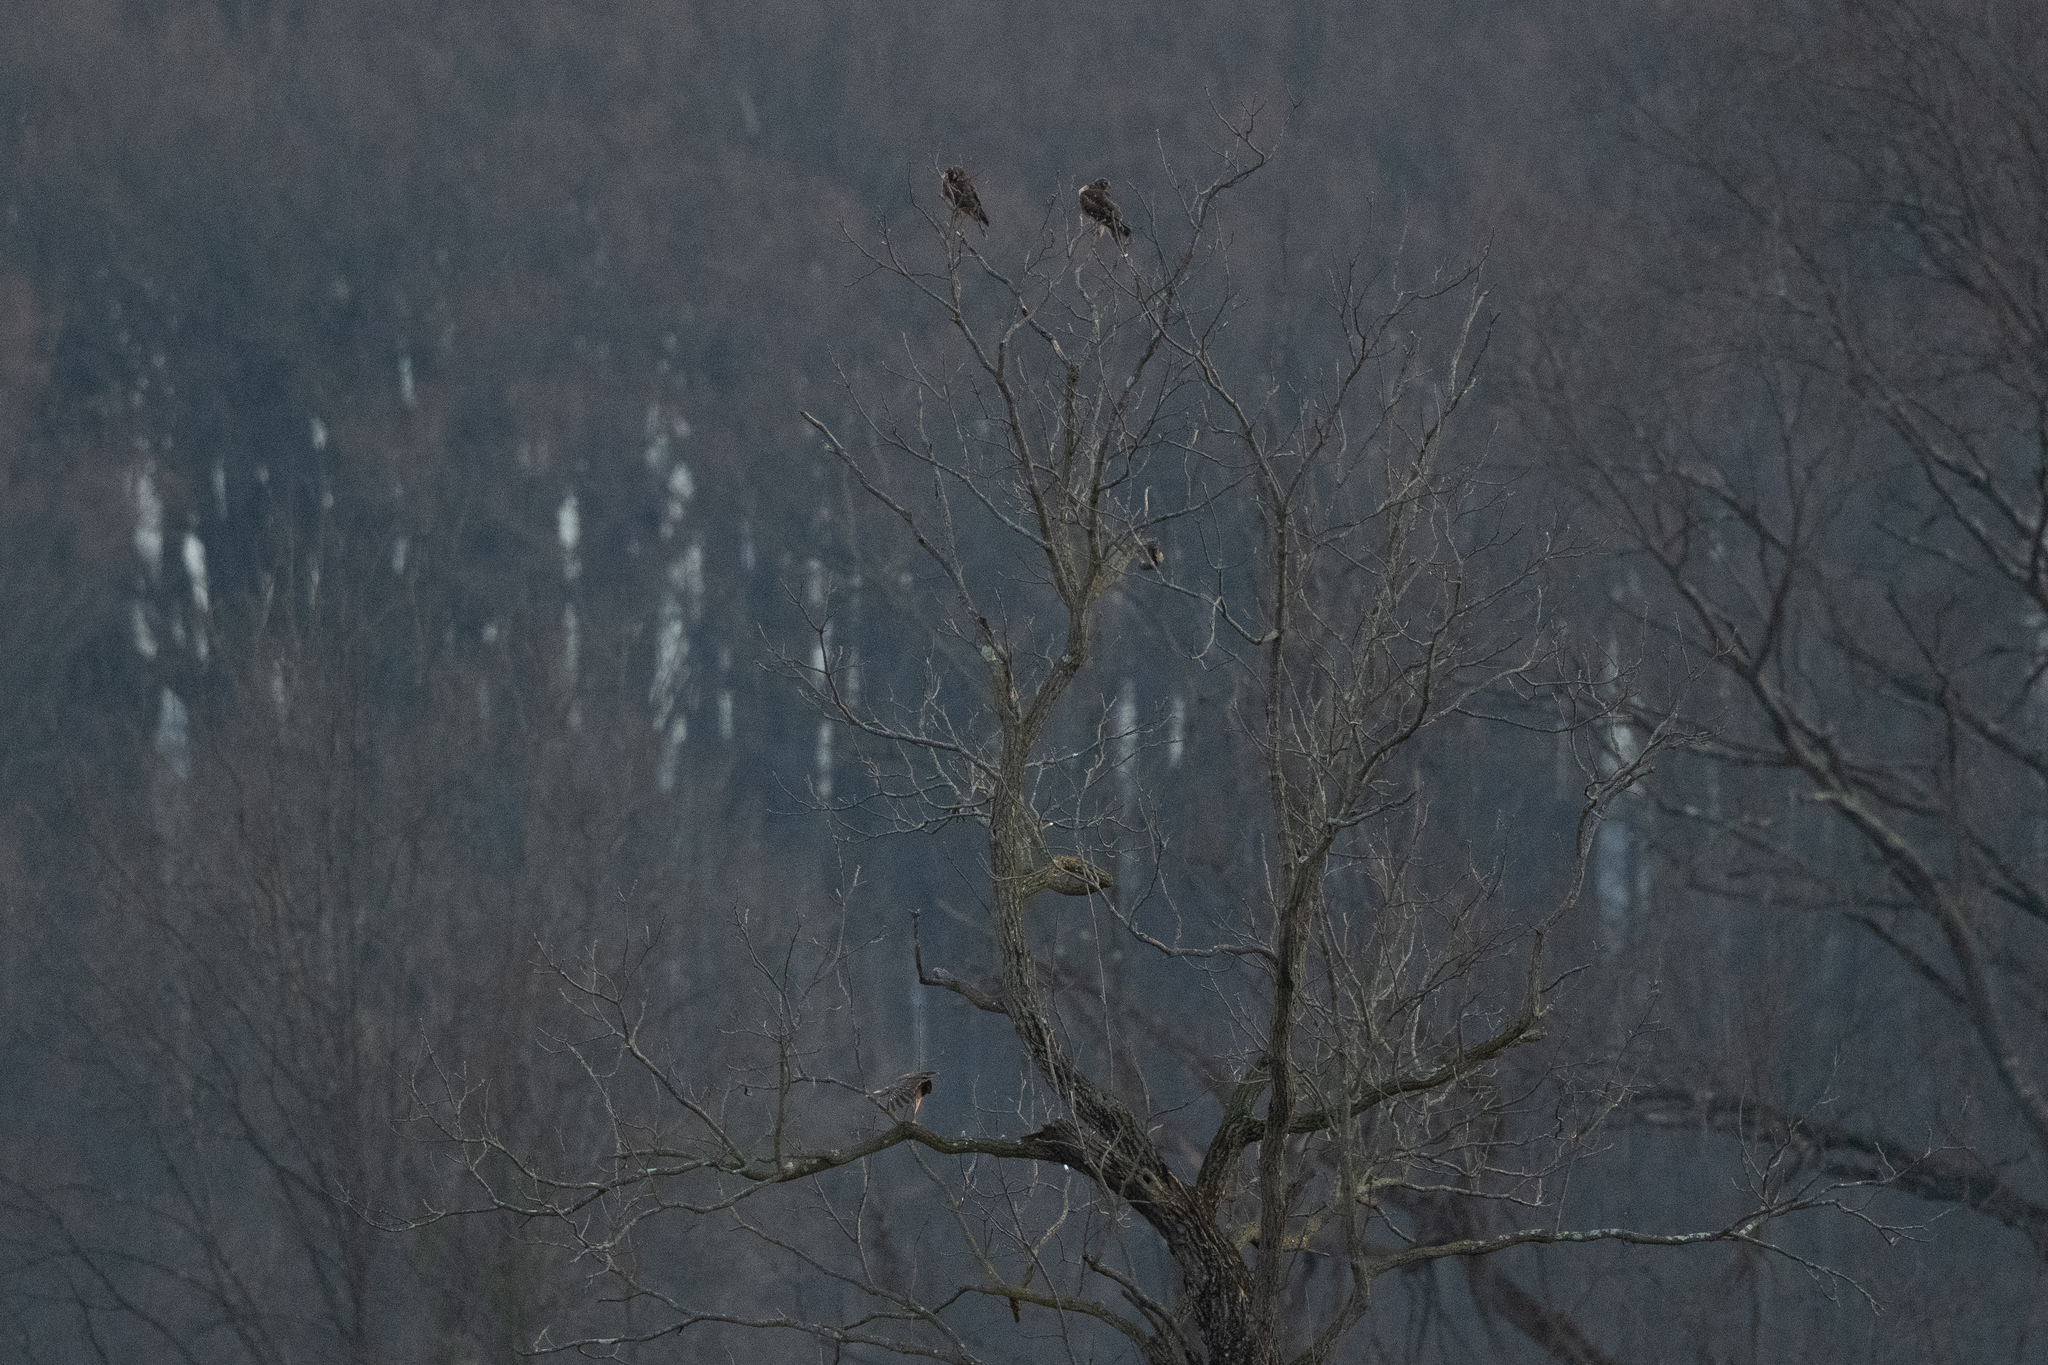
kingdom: Animalia
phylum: Chordata
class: Aves
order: Accipitriformes
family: Accipitridae
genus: Circus
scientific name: Circus cyaneus
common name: Hen harrier
